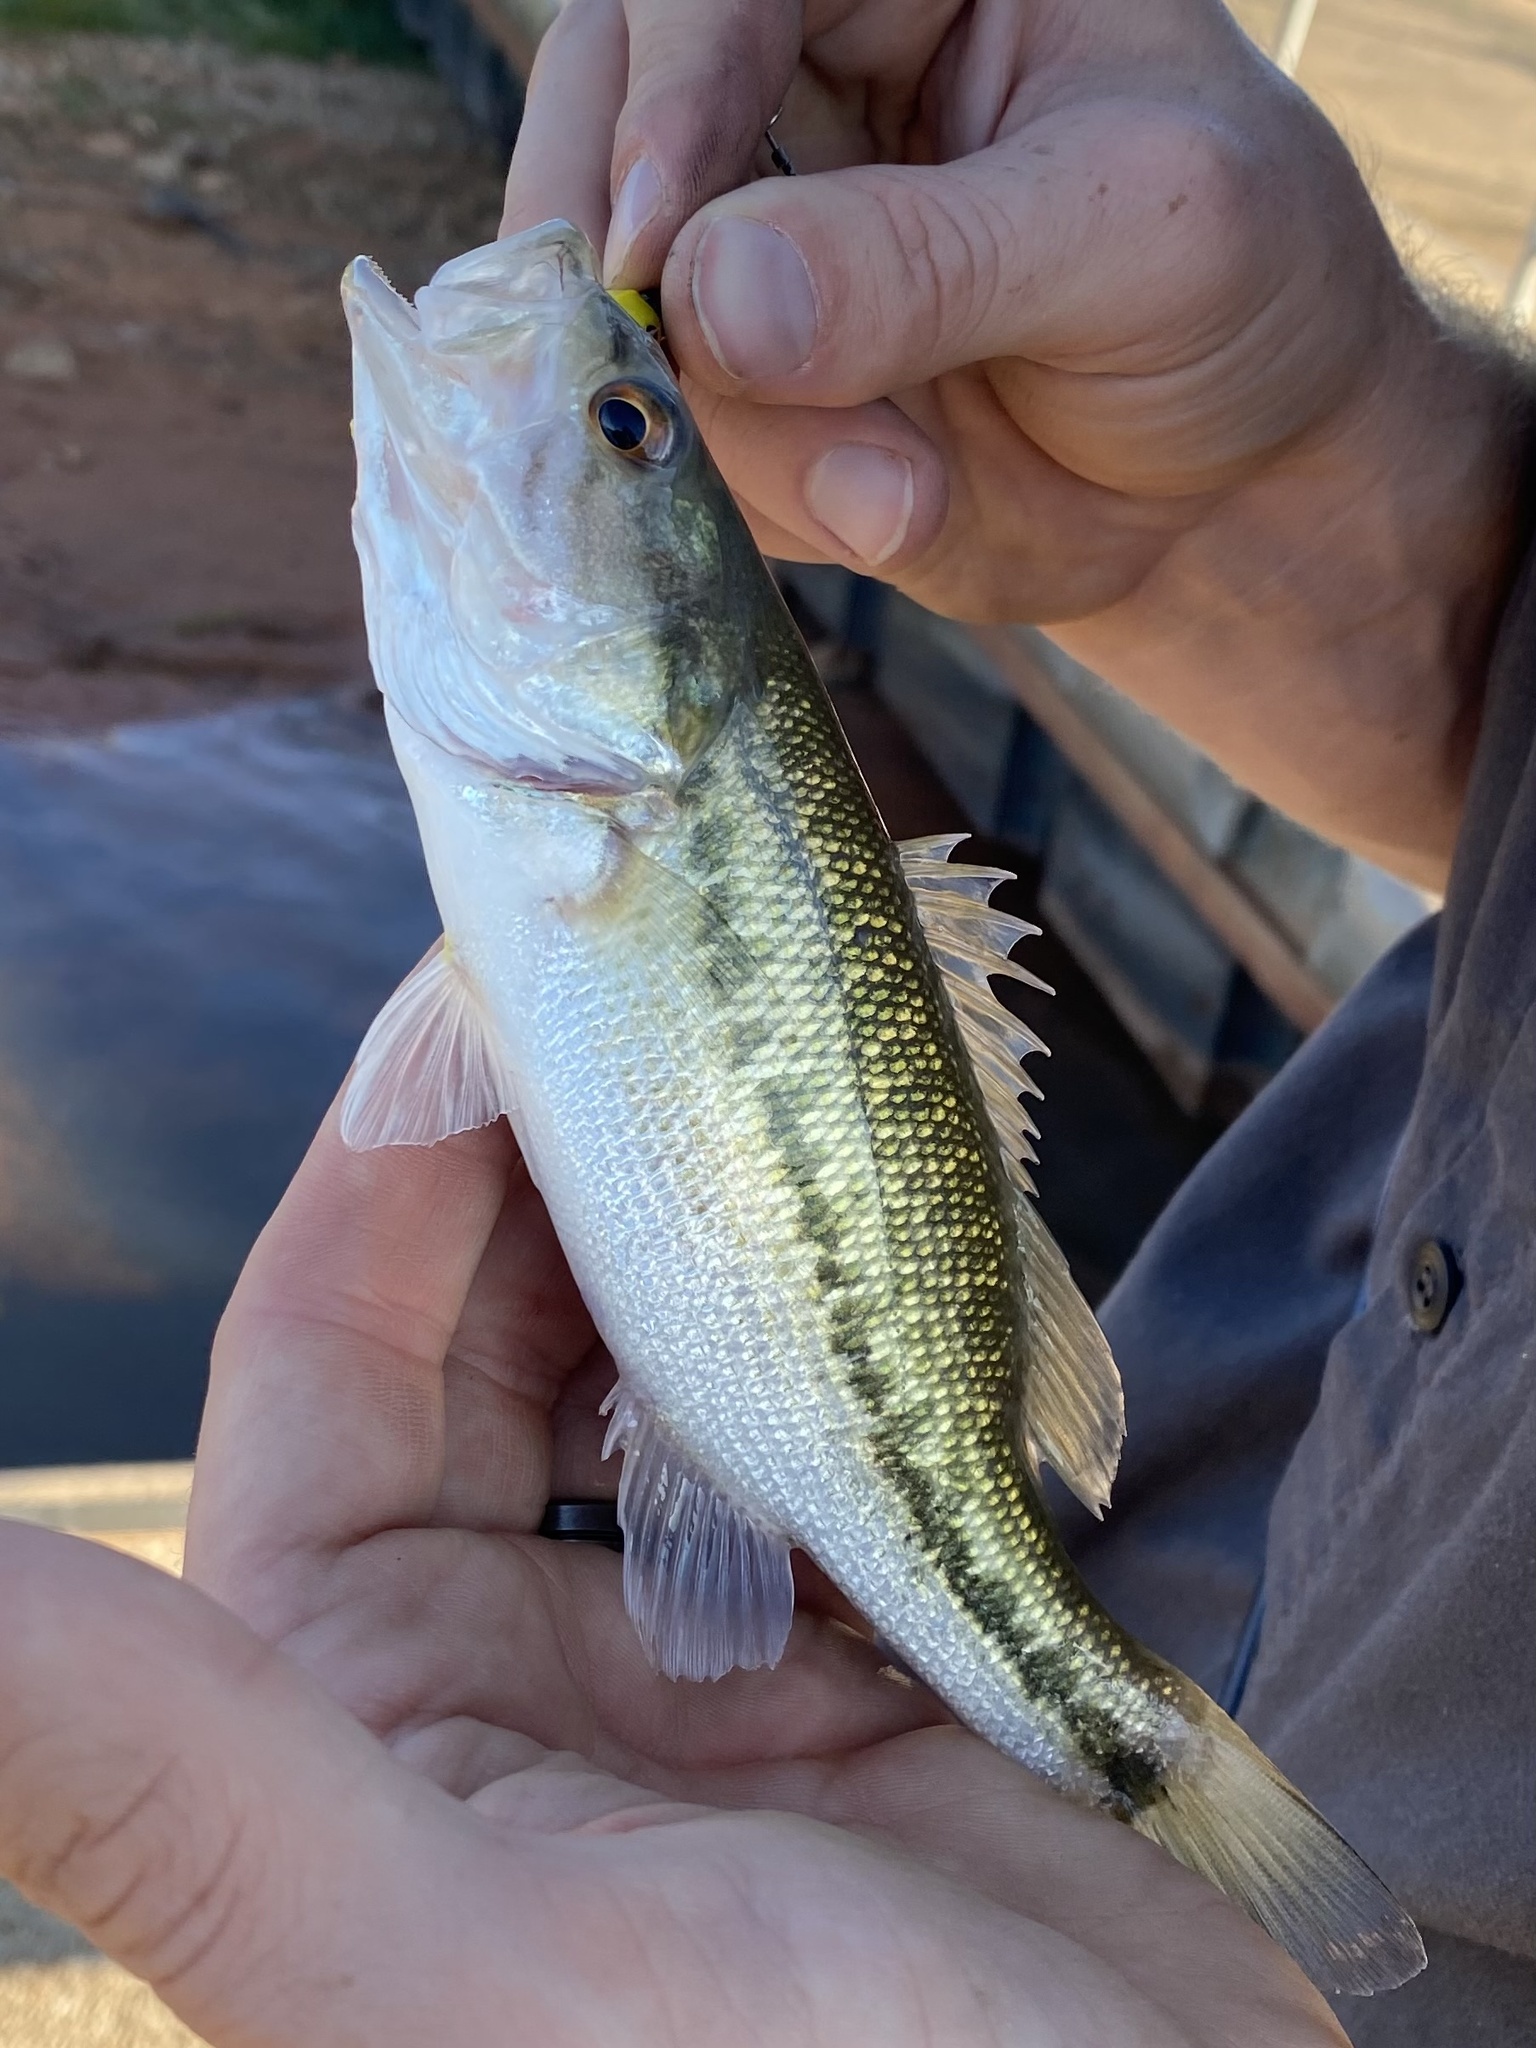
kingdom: Animalia
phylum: Chordata
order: Perciformes
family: Centrarchidae
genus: Micropterus
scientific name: Micropterus punctulatus
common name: Spotted bass
